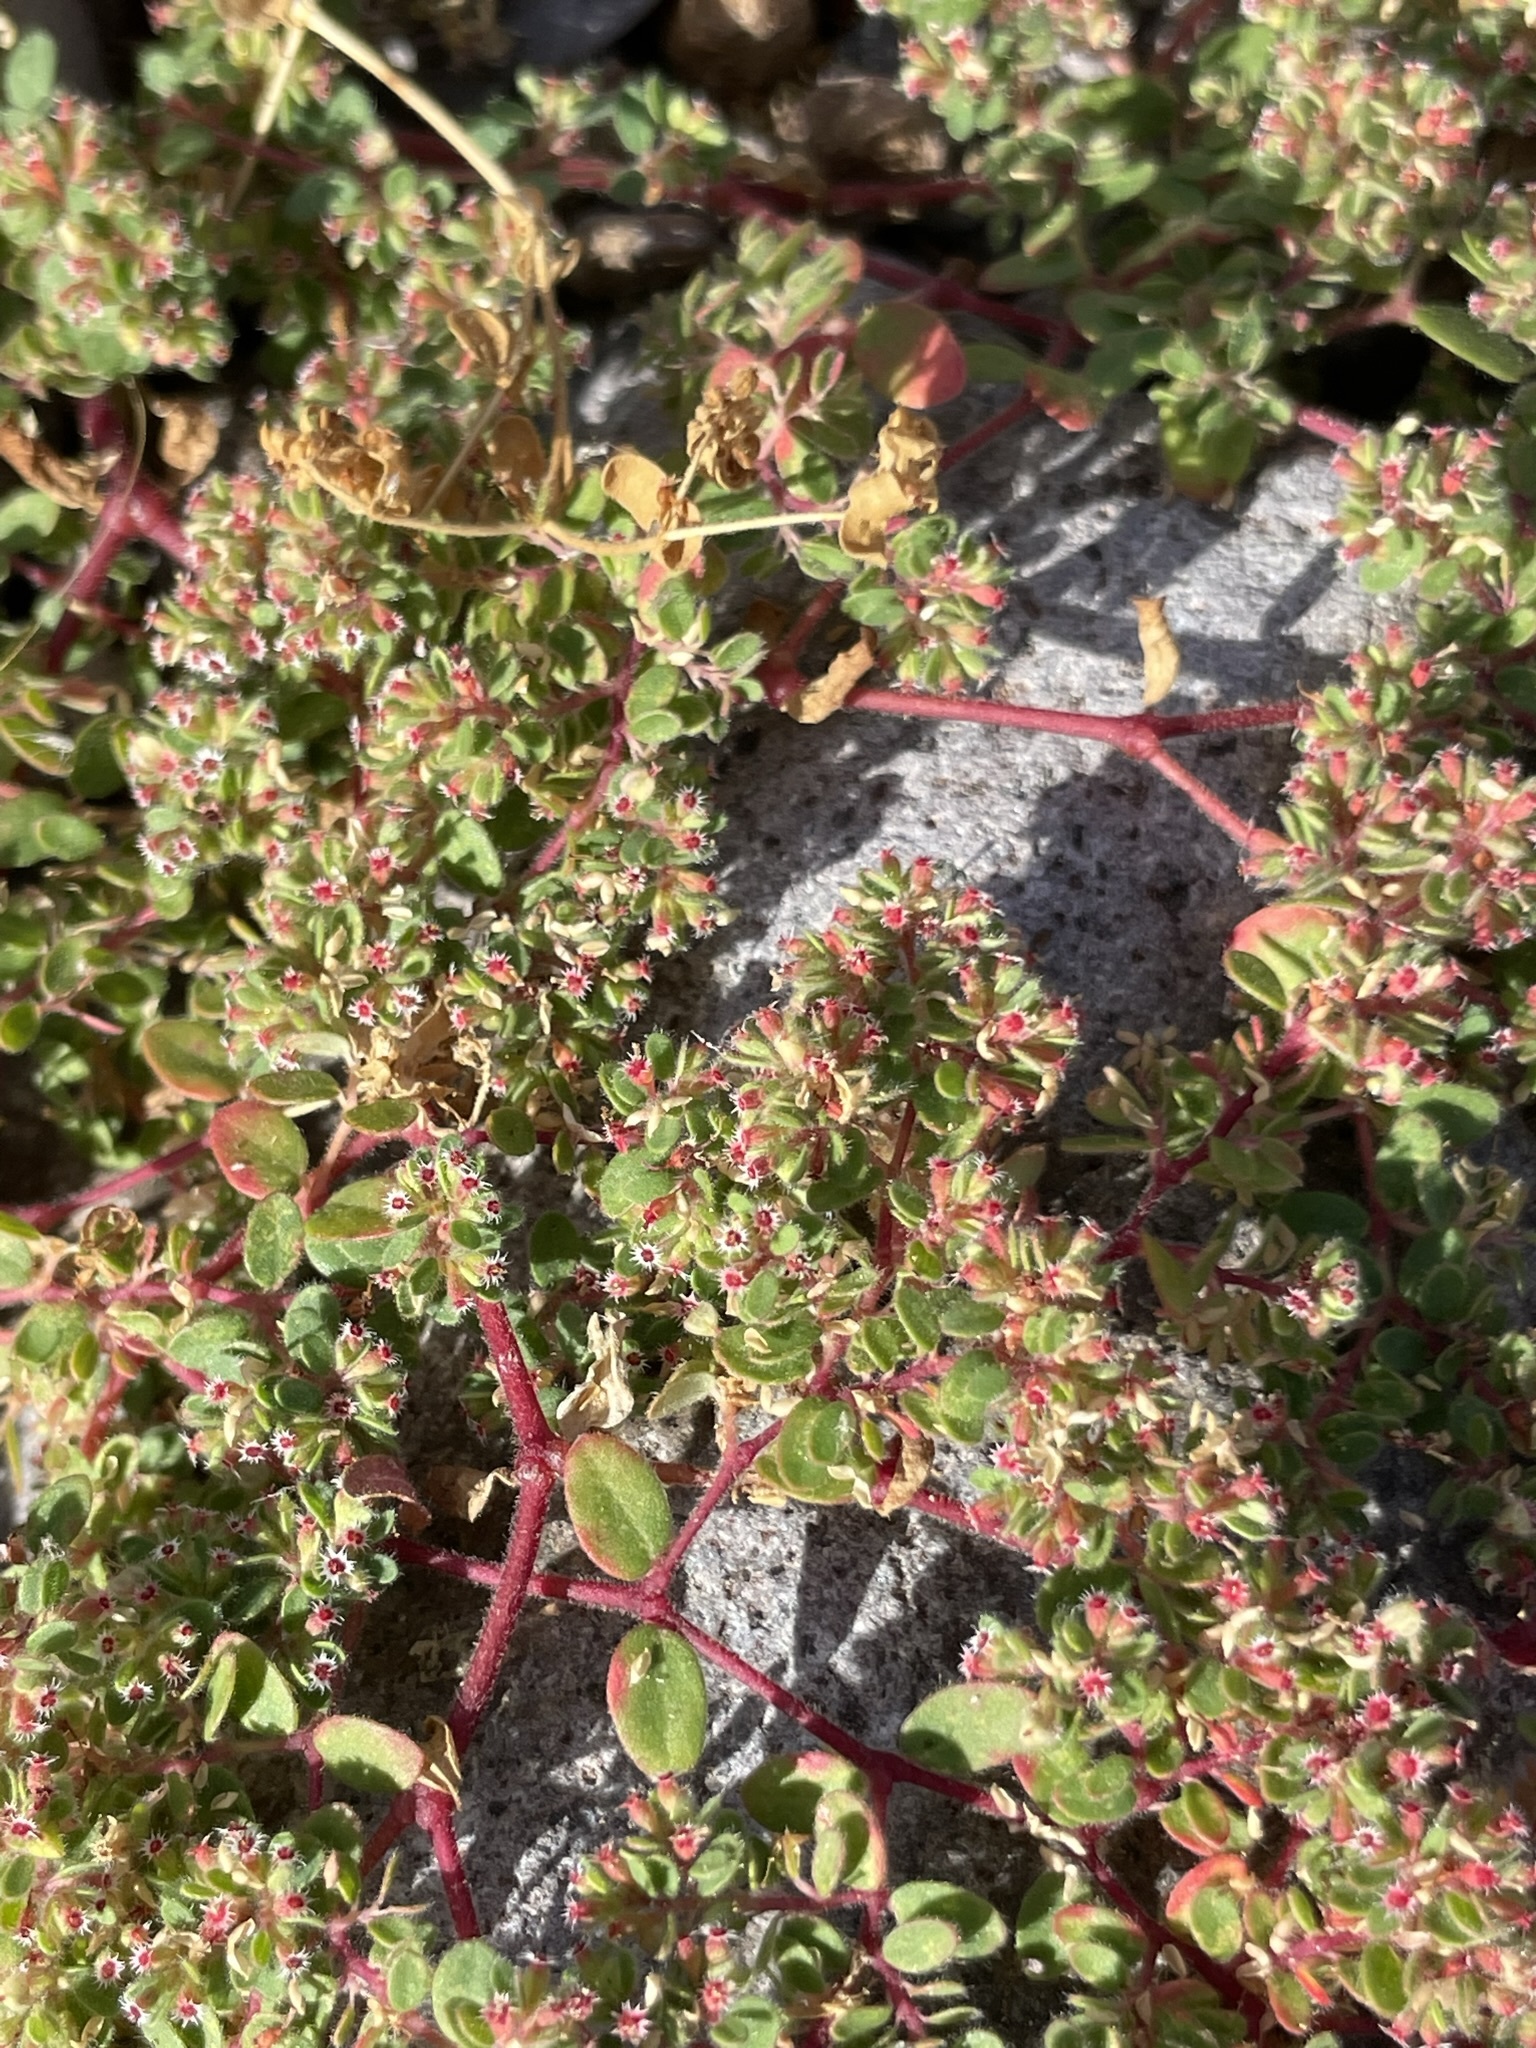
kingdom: Plantae
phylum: Tracheophyta
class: Magnoliopsida
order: Malpighiales
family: Euphorbiaceae
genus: Euphorbia
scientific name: Euphorbia setiloba
